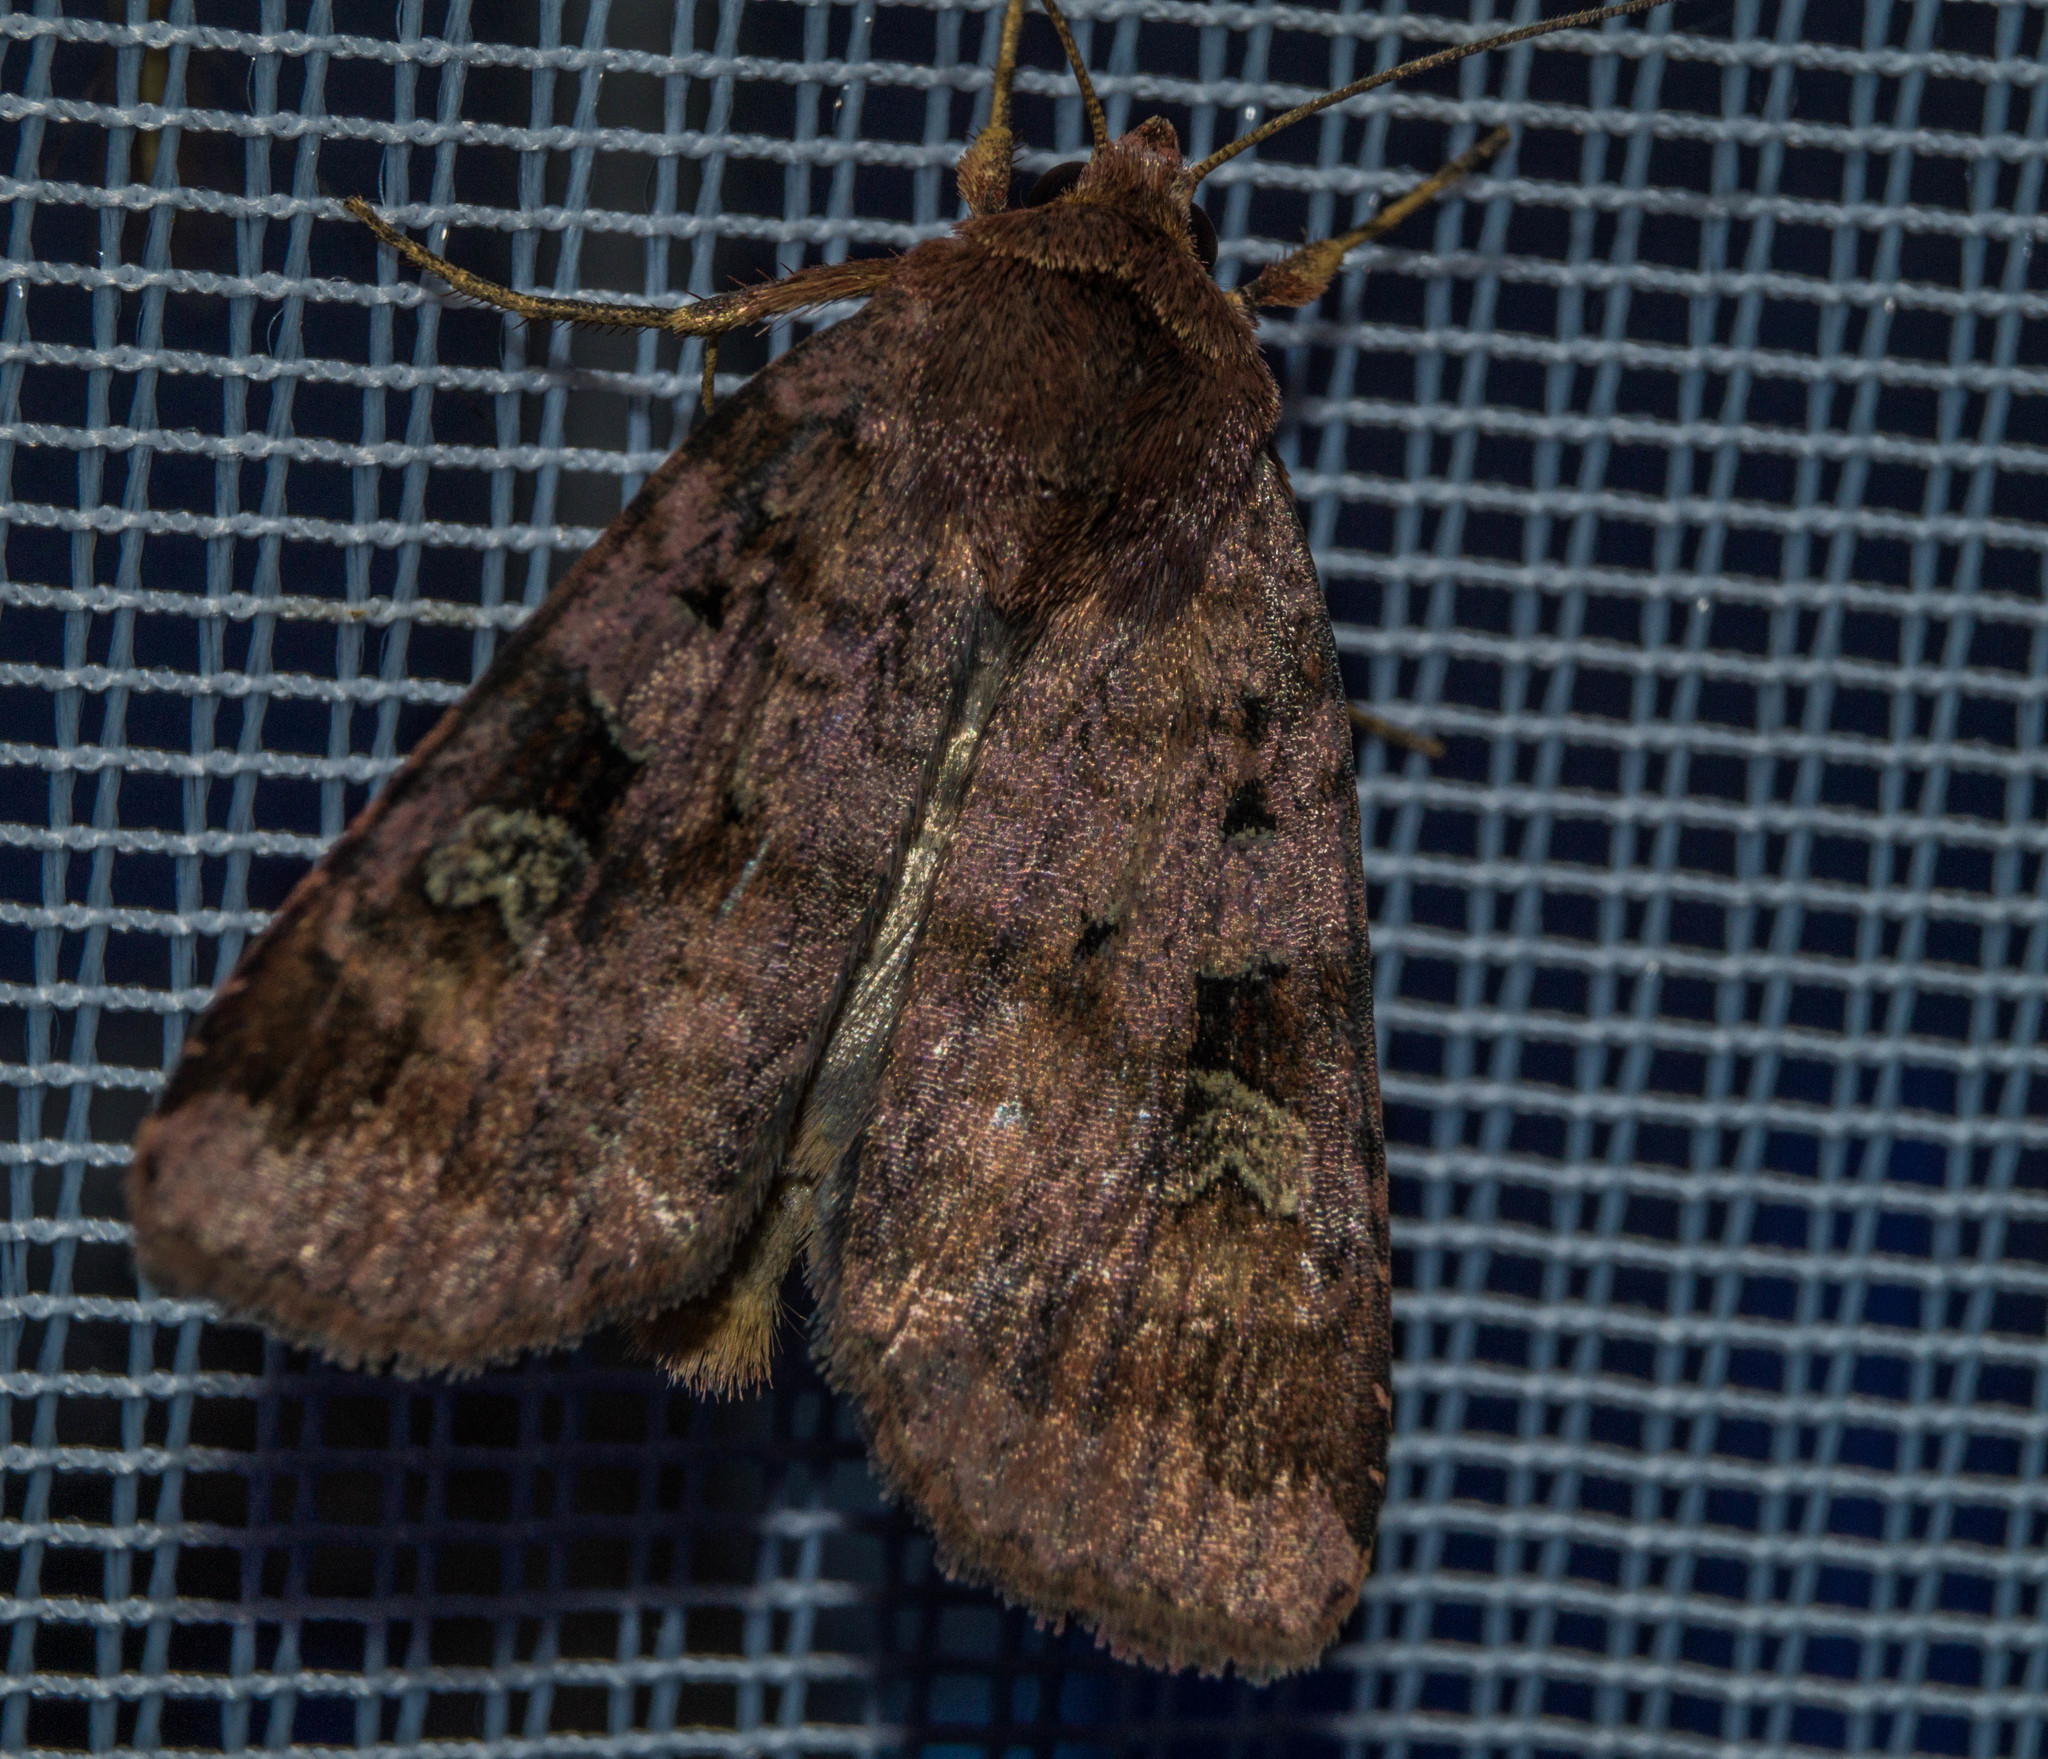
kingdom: Animalia
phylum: Arthropoda
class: Insecta
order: Lepidoptera
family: Noctuidae
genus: Diarsia
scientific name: Diarsia brunnea
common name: Purple clay
